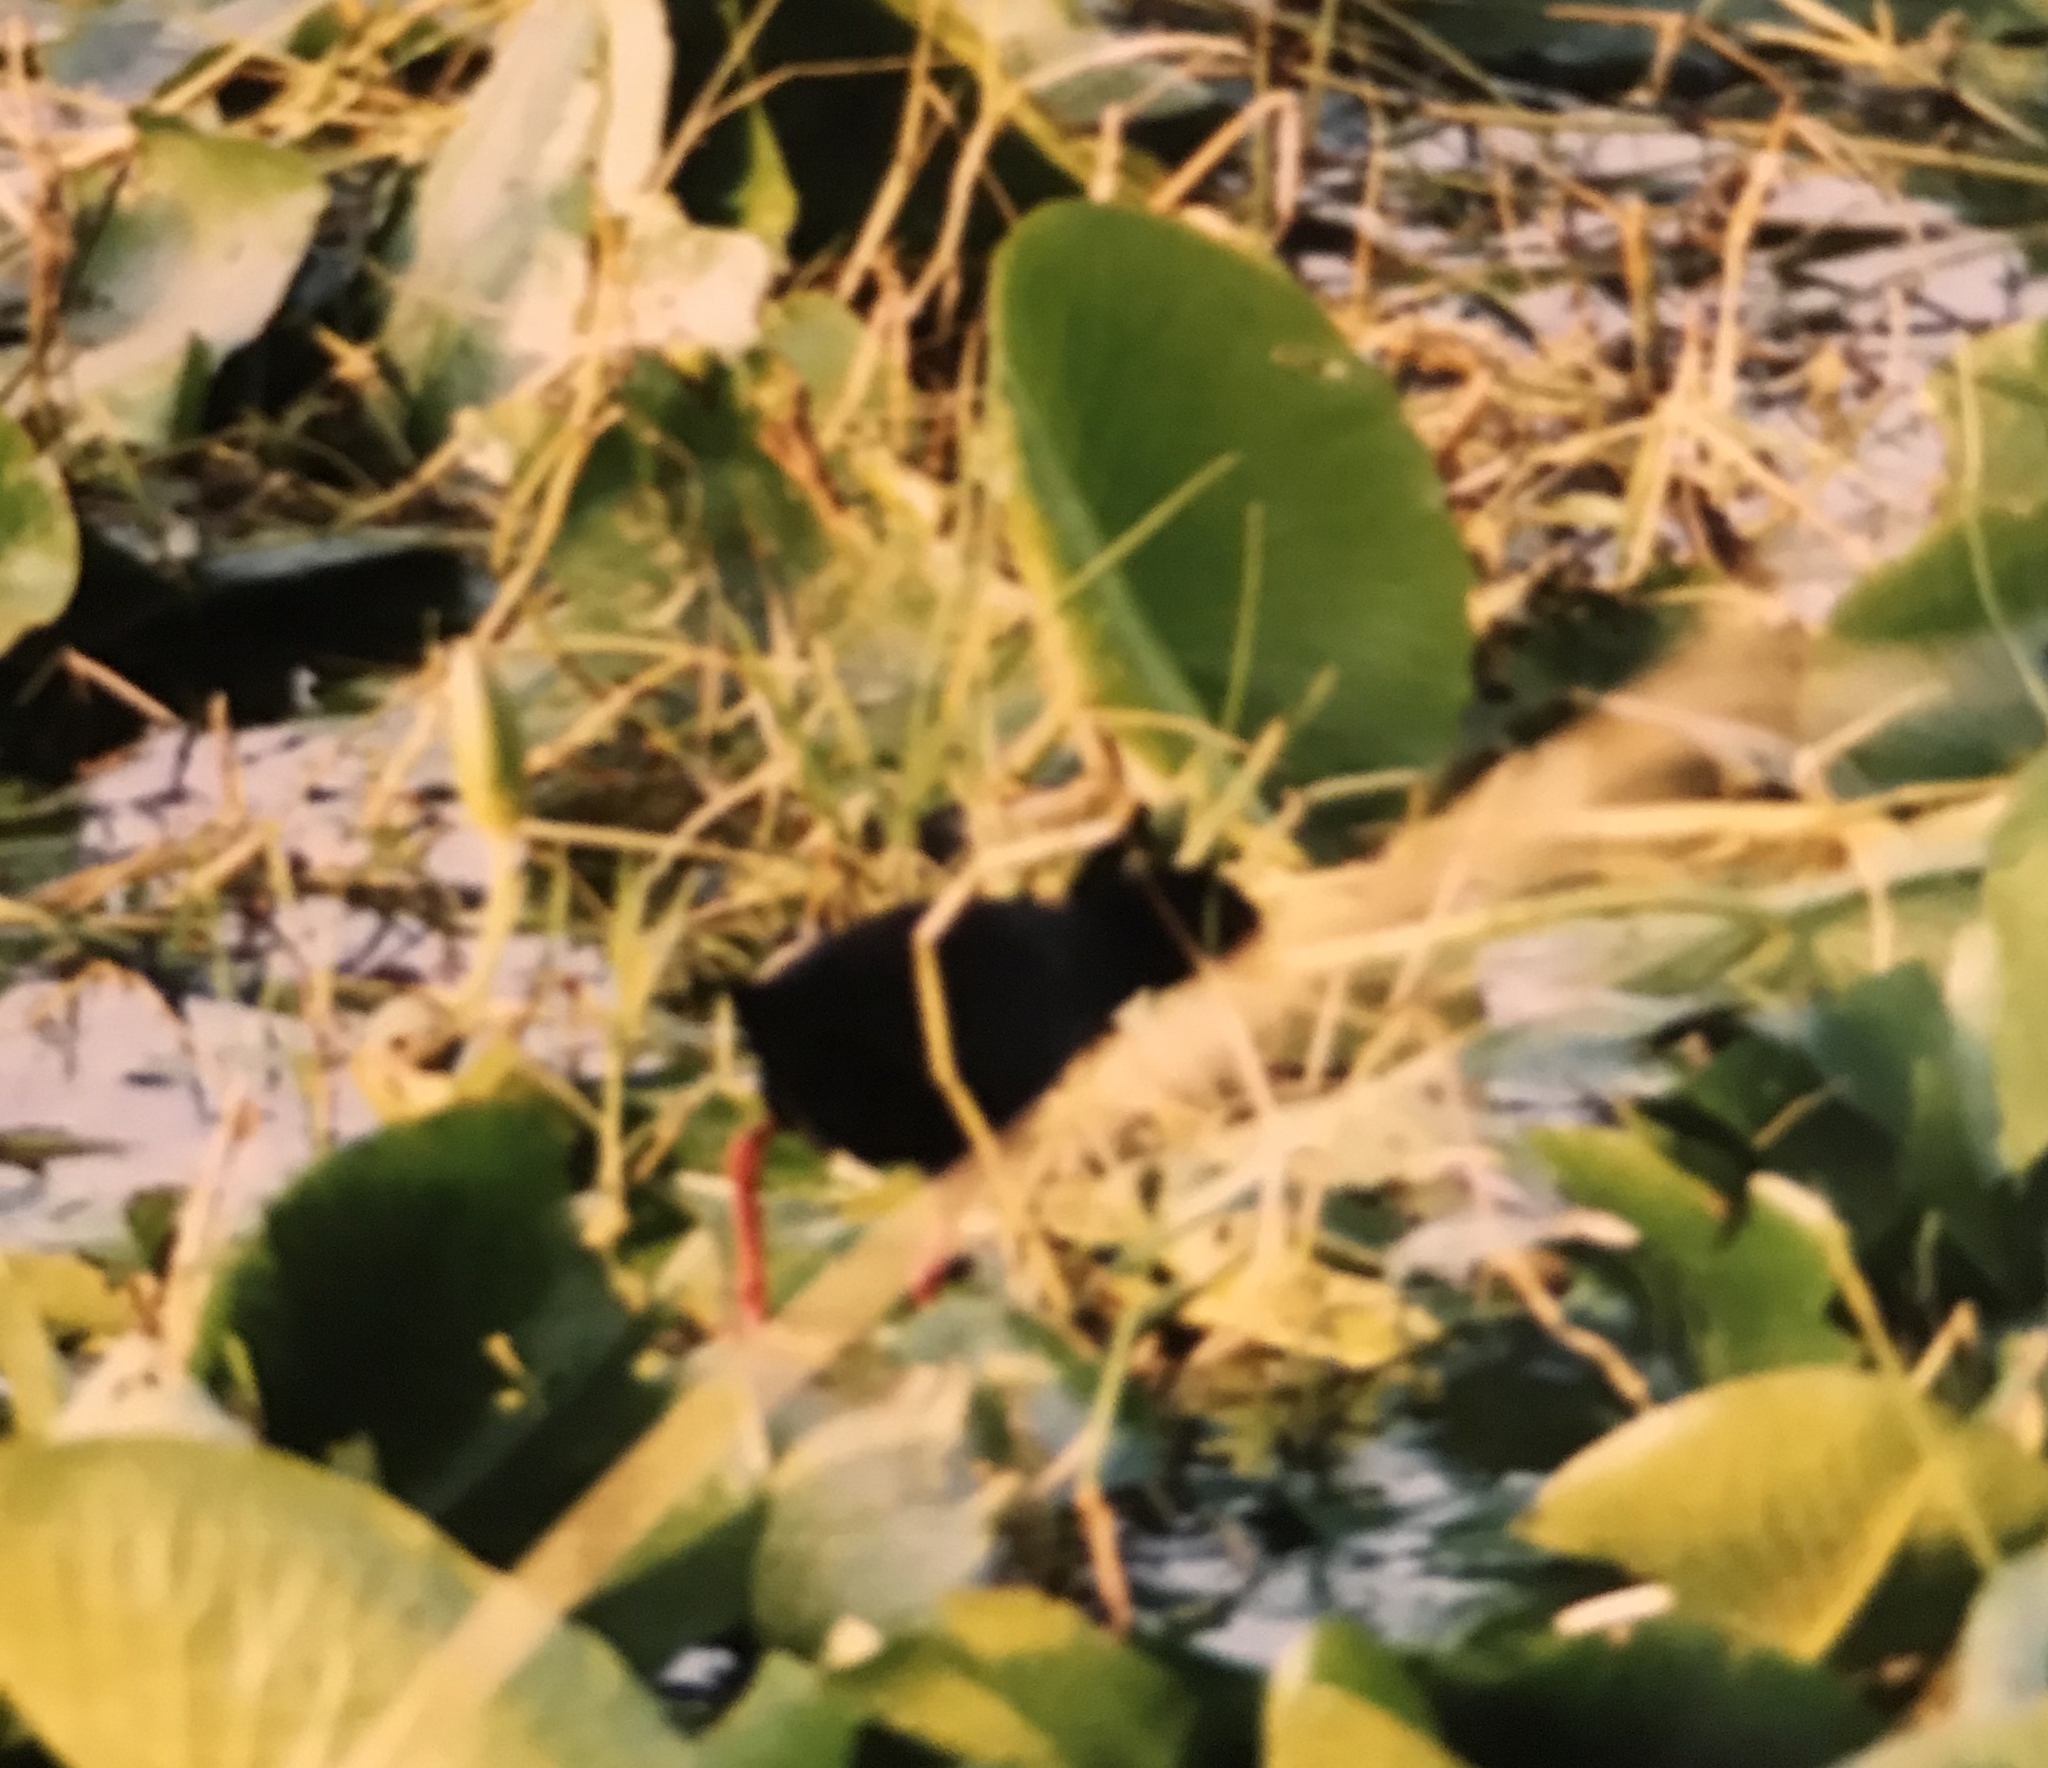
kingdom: Animalia
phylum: Chordata
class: Aves
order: Gruiformes
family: Rallidae
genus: Amaurornis
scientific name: Amaurornis flavirostra
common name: Black crake
